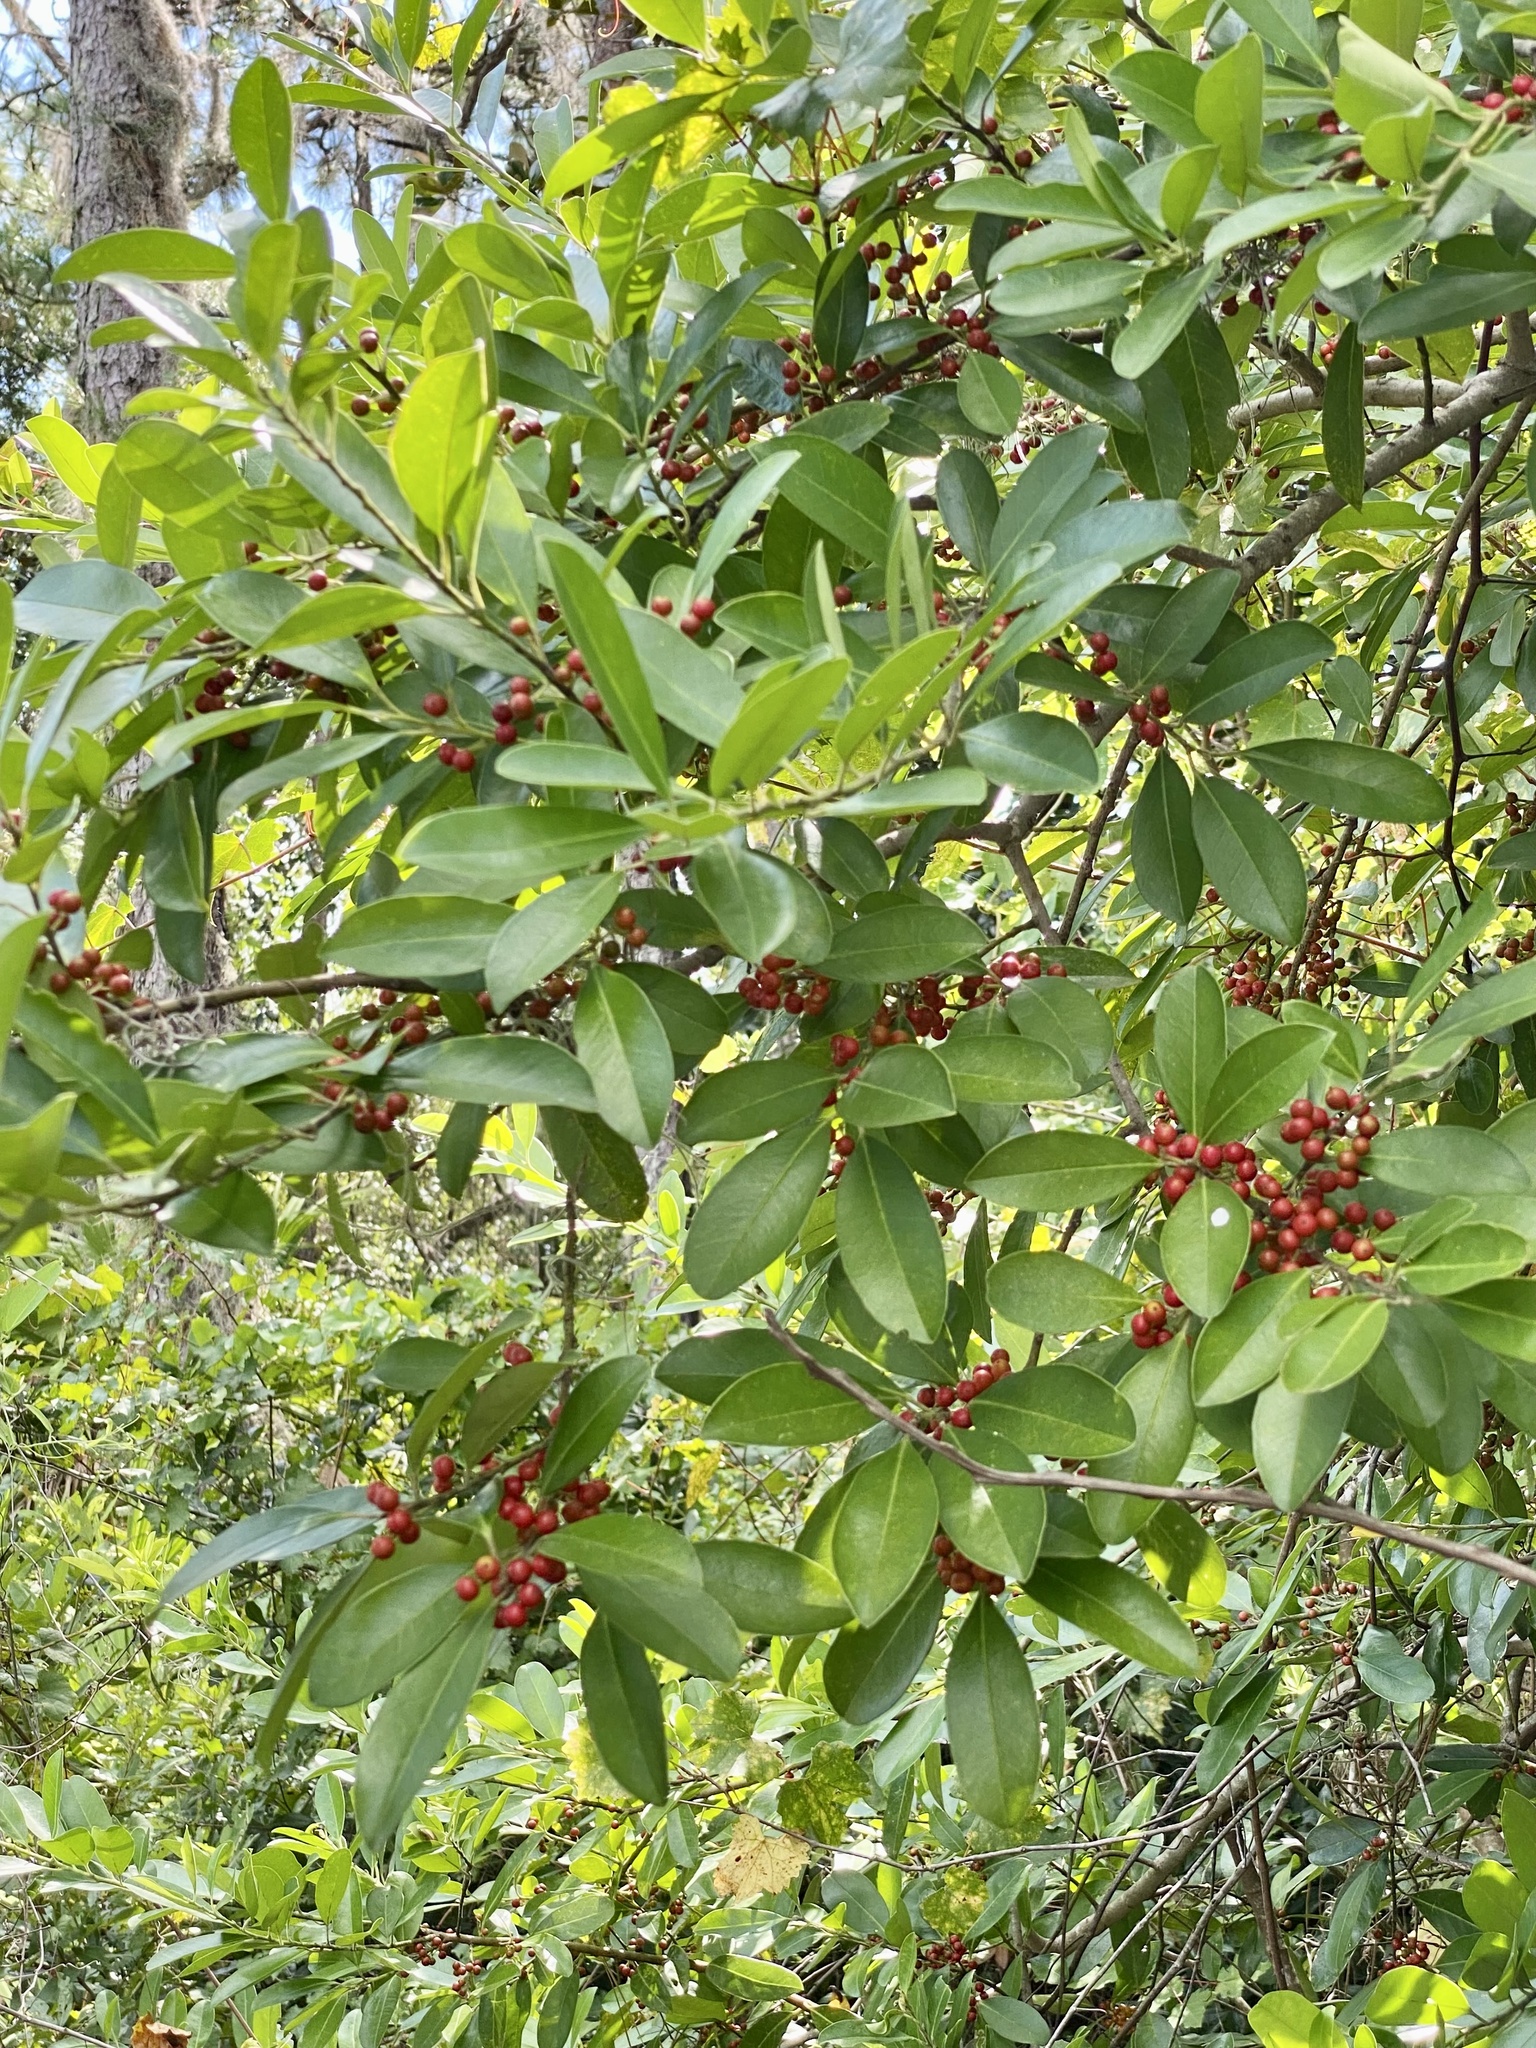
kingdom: Plantae
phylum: Tracheophyta
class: Magnoliopsida
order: Aquifoliales
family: Aquifoliaceae
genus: Ilex
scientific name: Ilex cassine
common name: Dahoon
